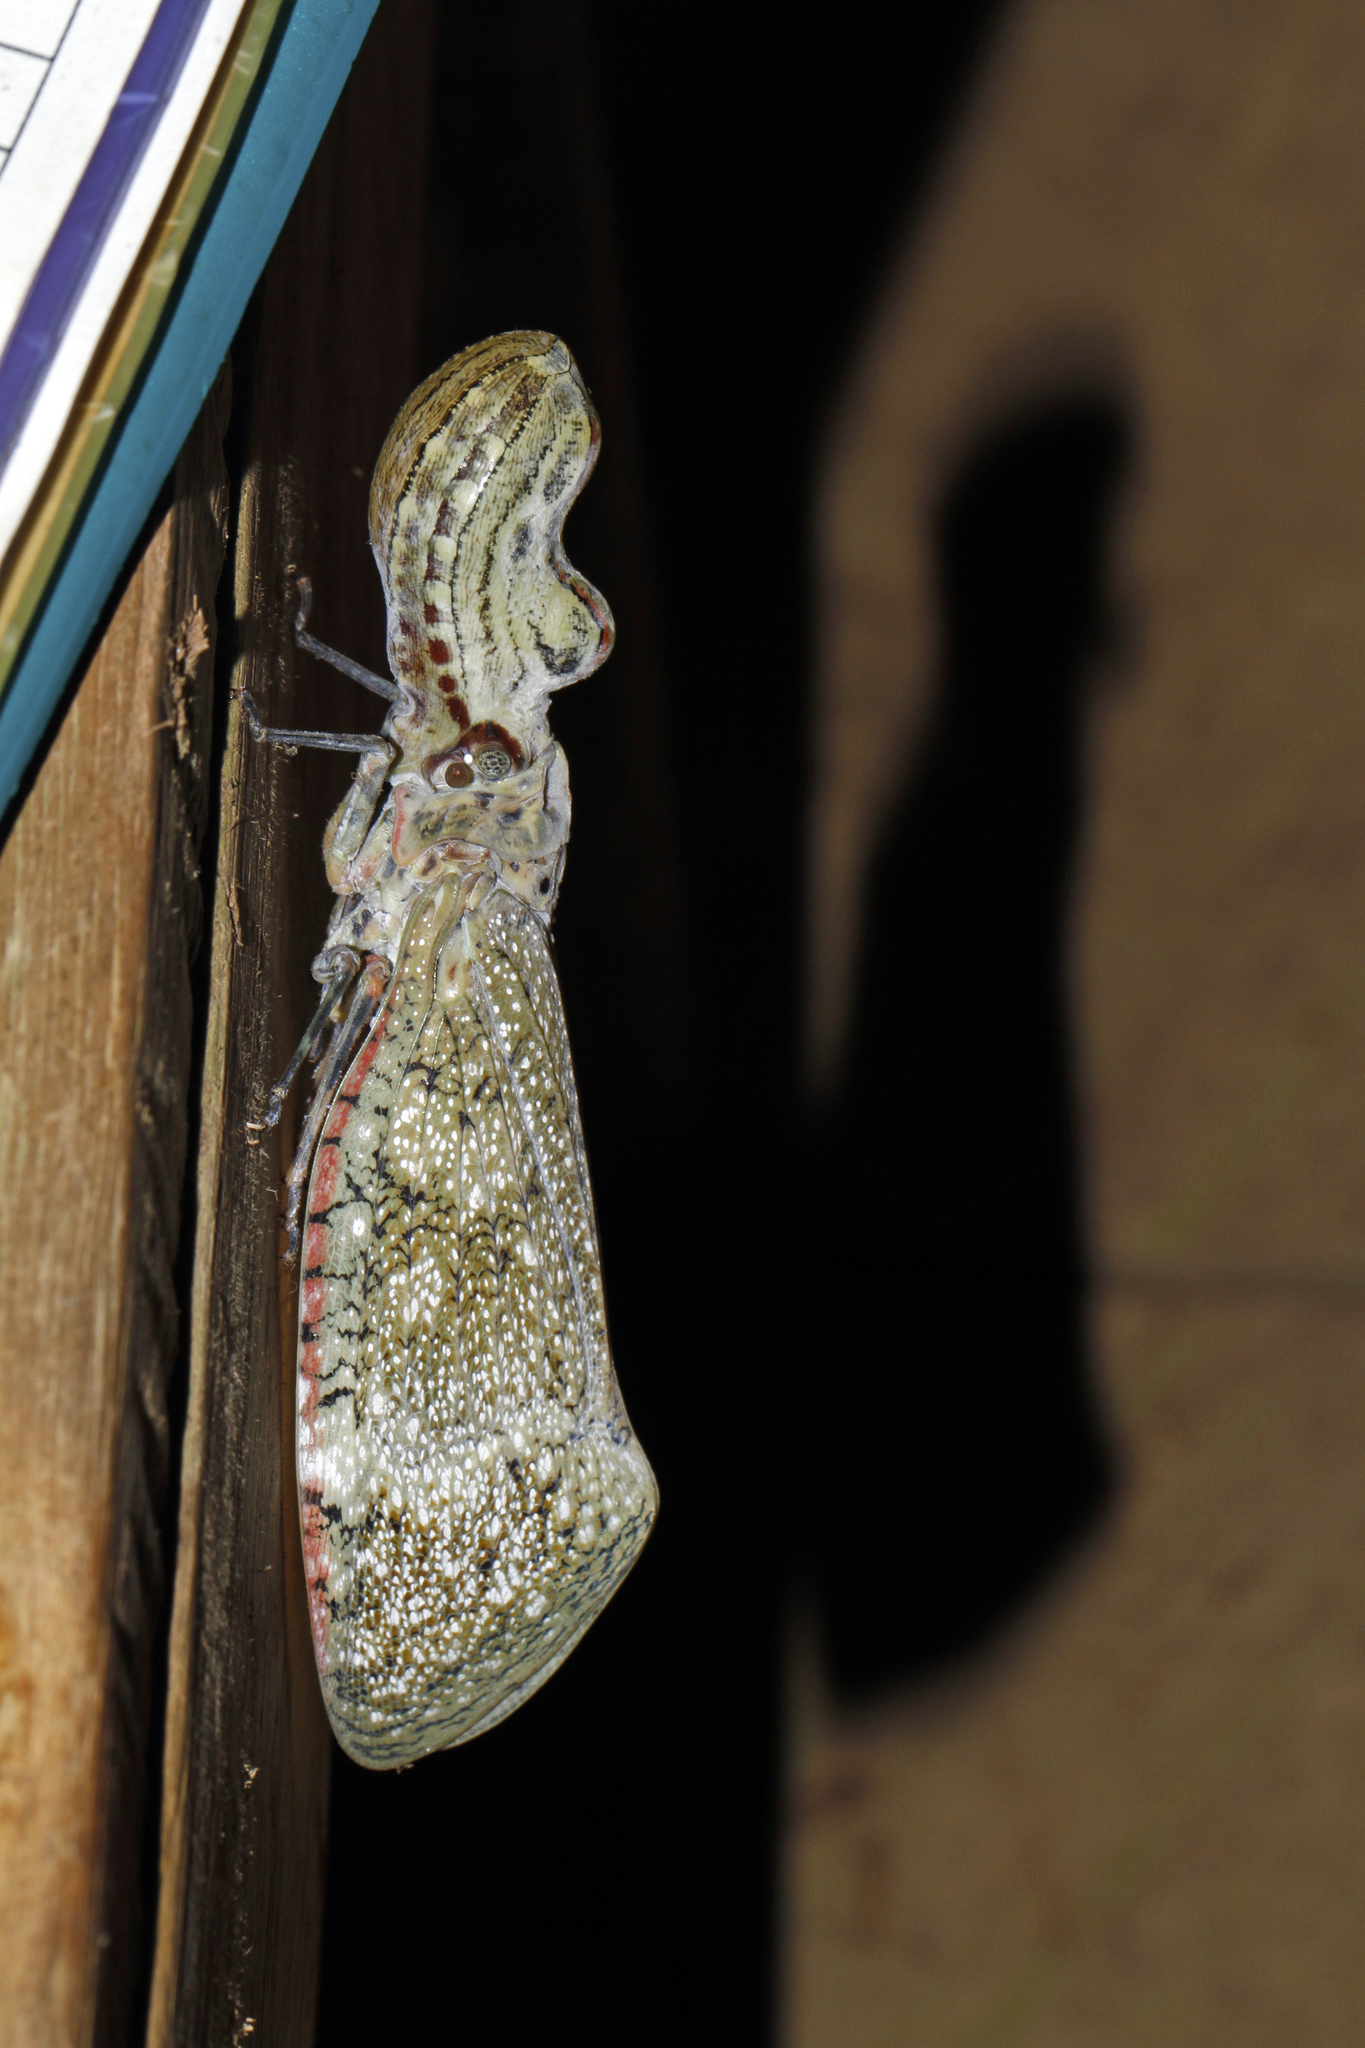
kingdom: Animalia
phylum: Arthropoda
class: Insecta
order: Hemiptera
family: Fulgoridae
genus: Fulgora
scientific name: Fulgora laternaria
